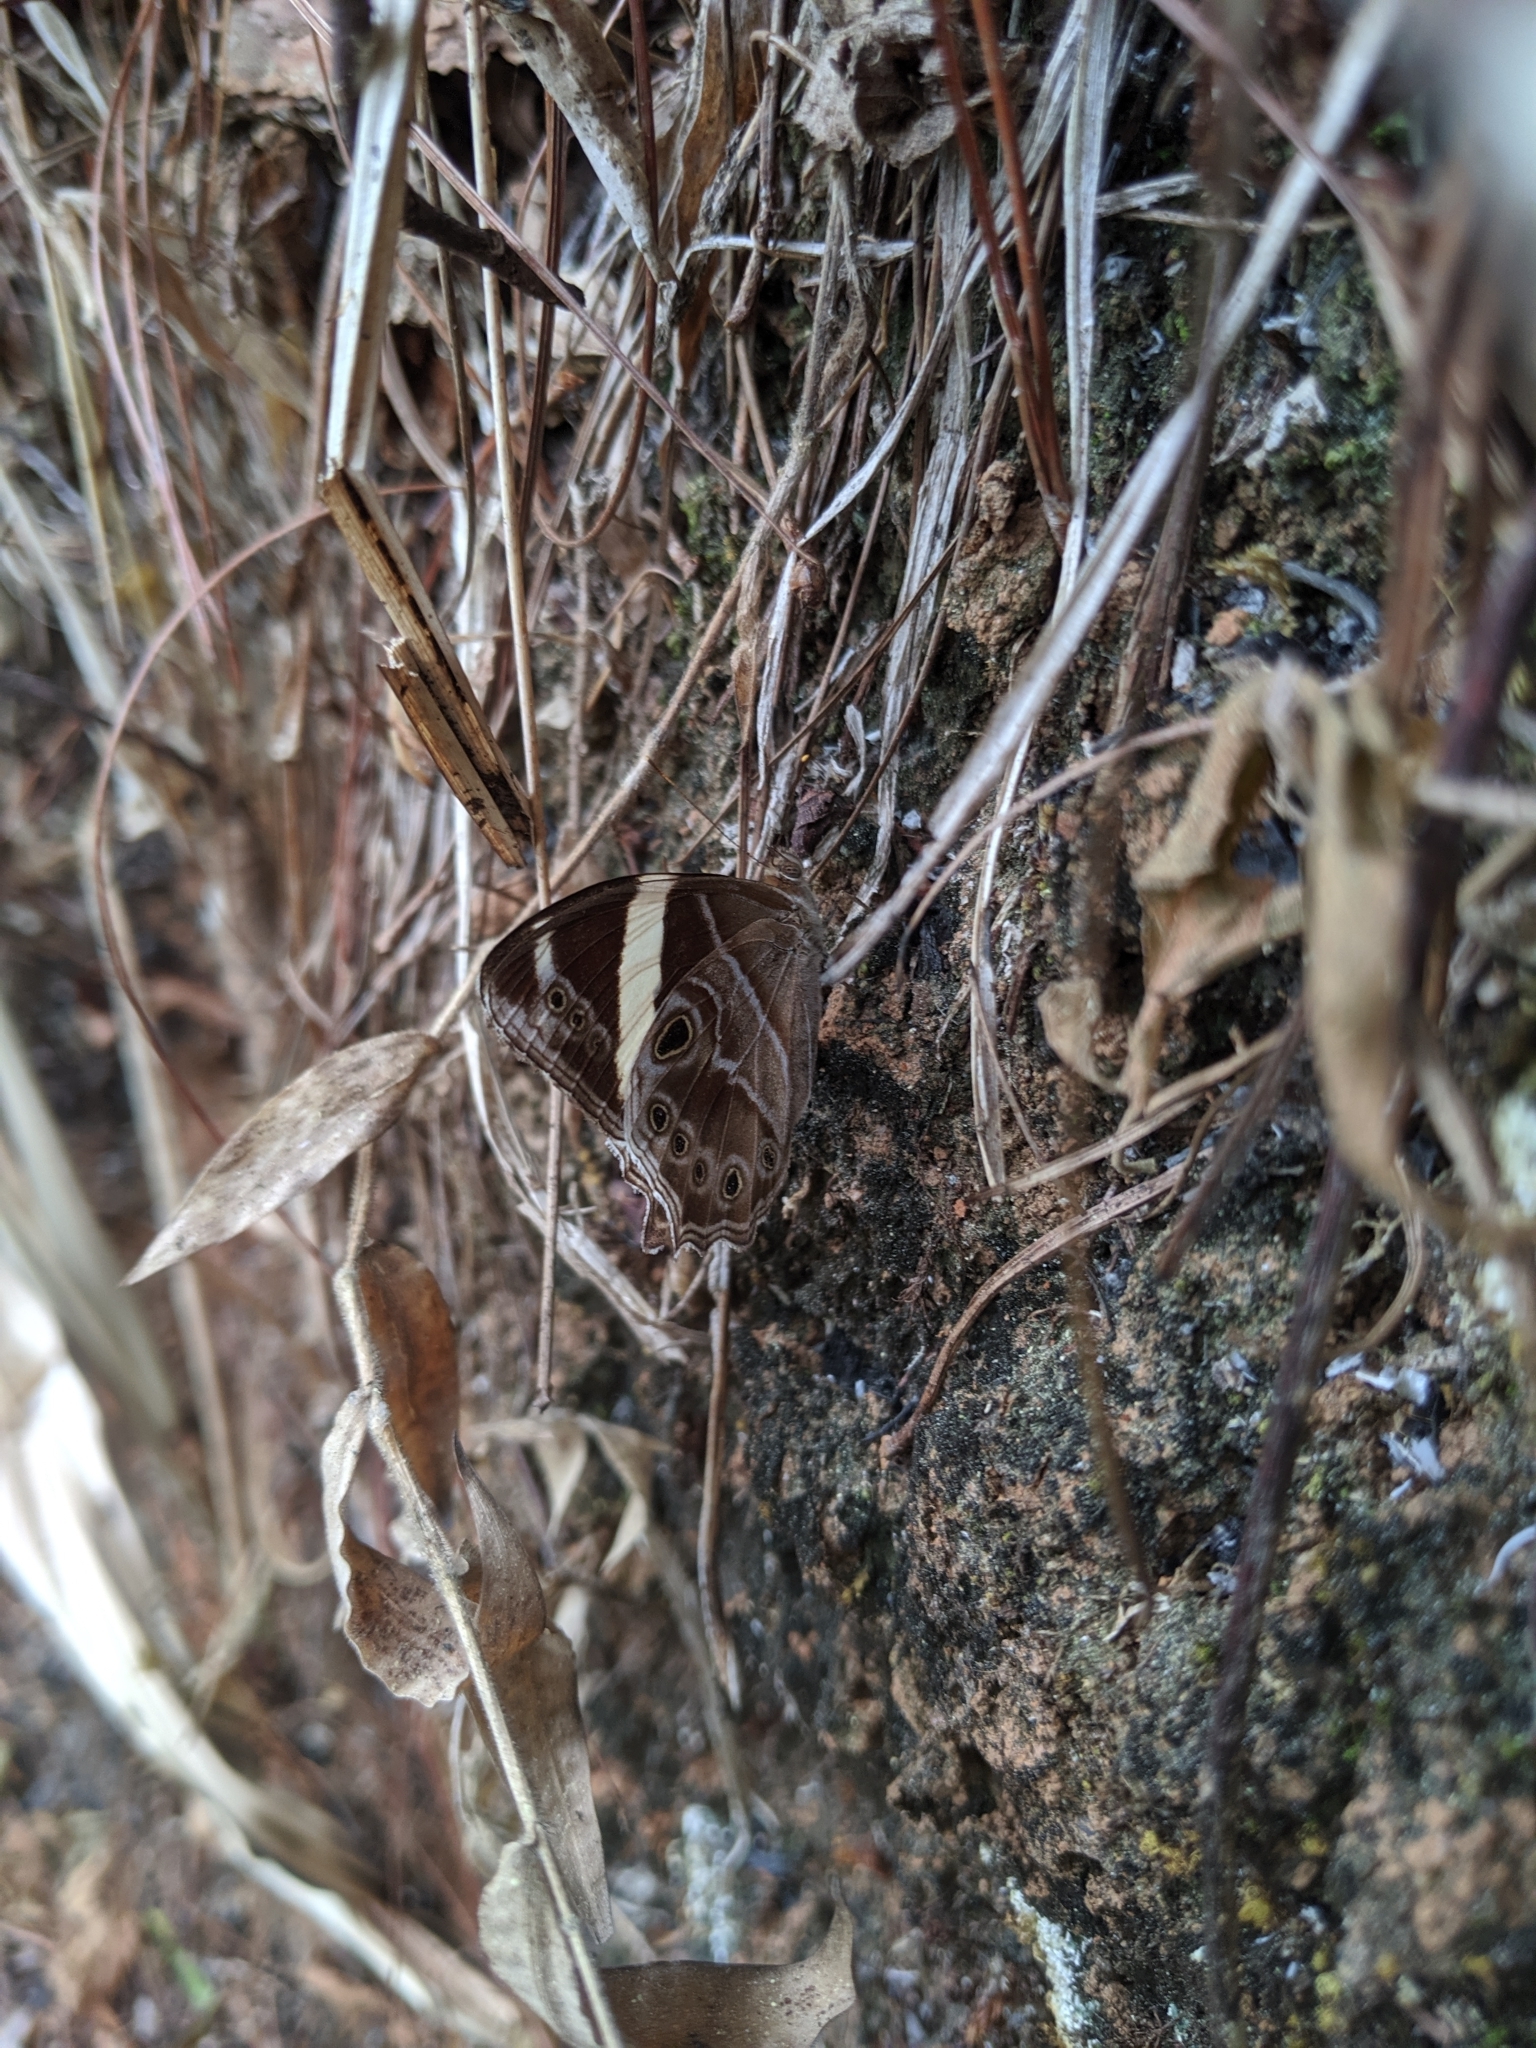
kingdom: Animalia
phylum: Arthropoda
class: Insecta
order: Lepidoptera
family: Nymphalidae
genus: Lethe
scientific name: Lethe confusa
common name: Banded treebrown
